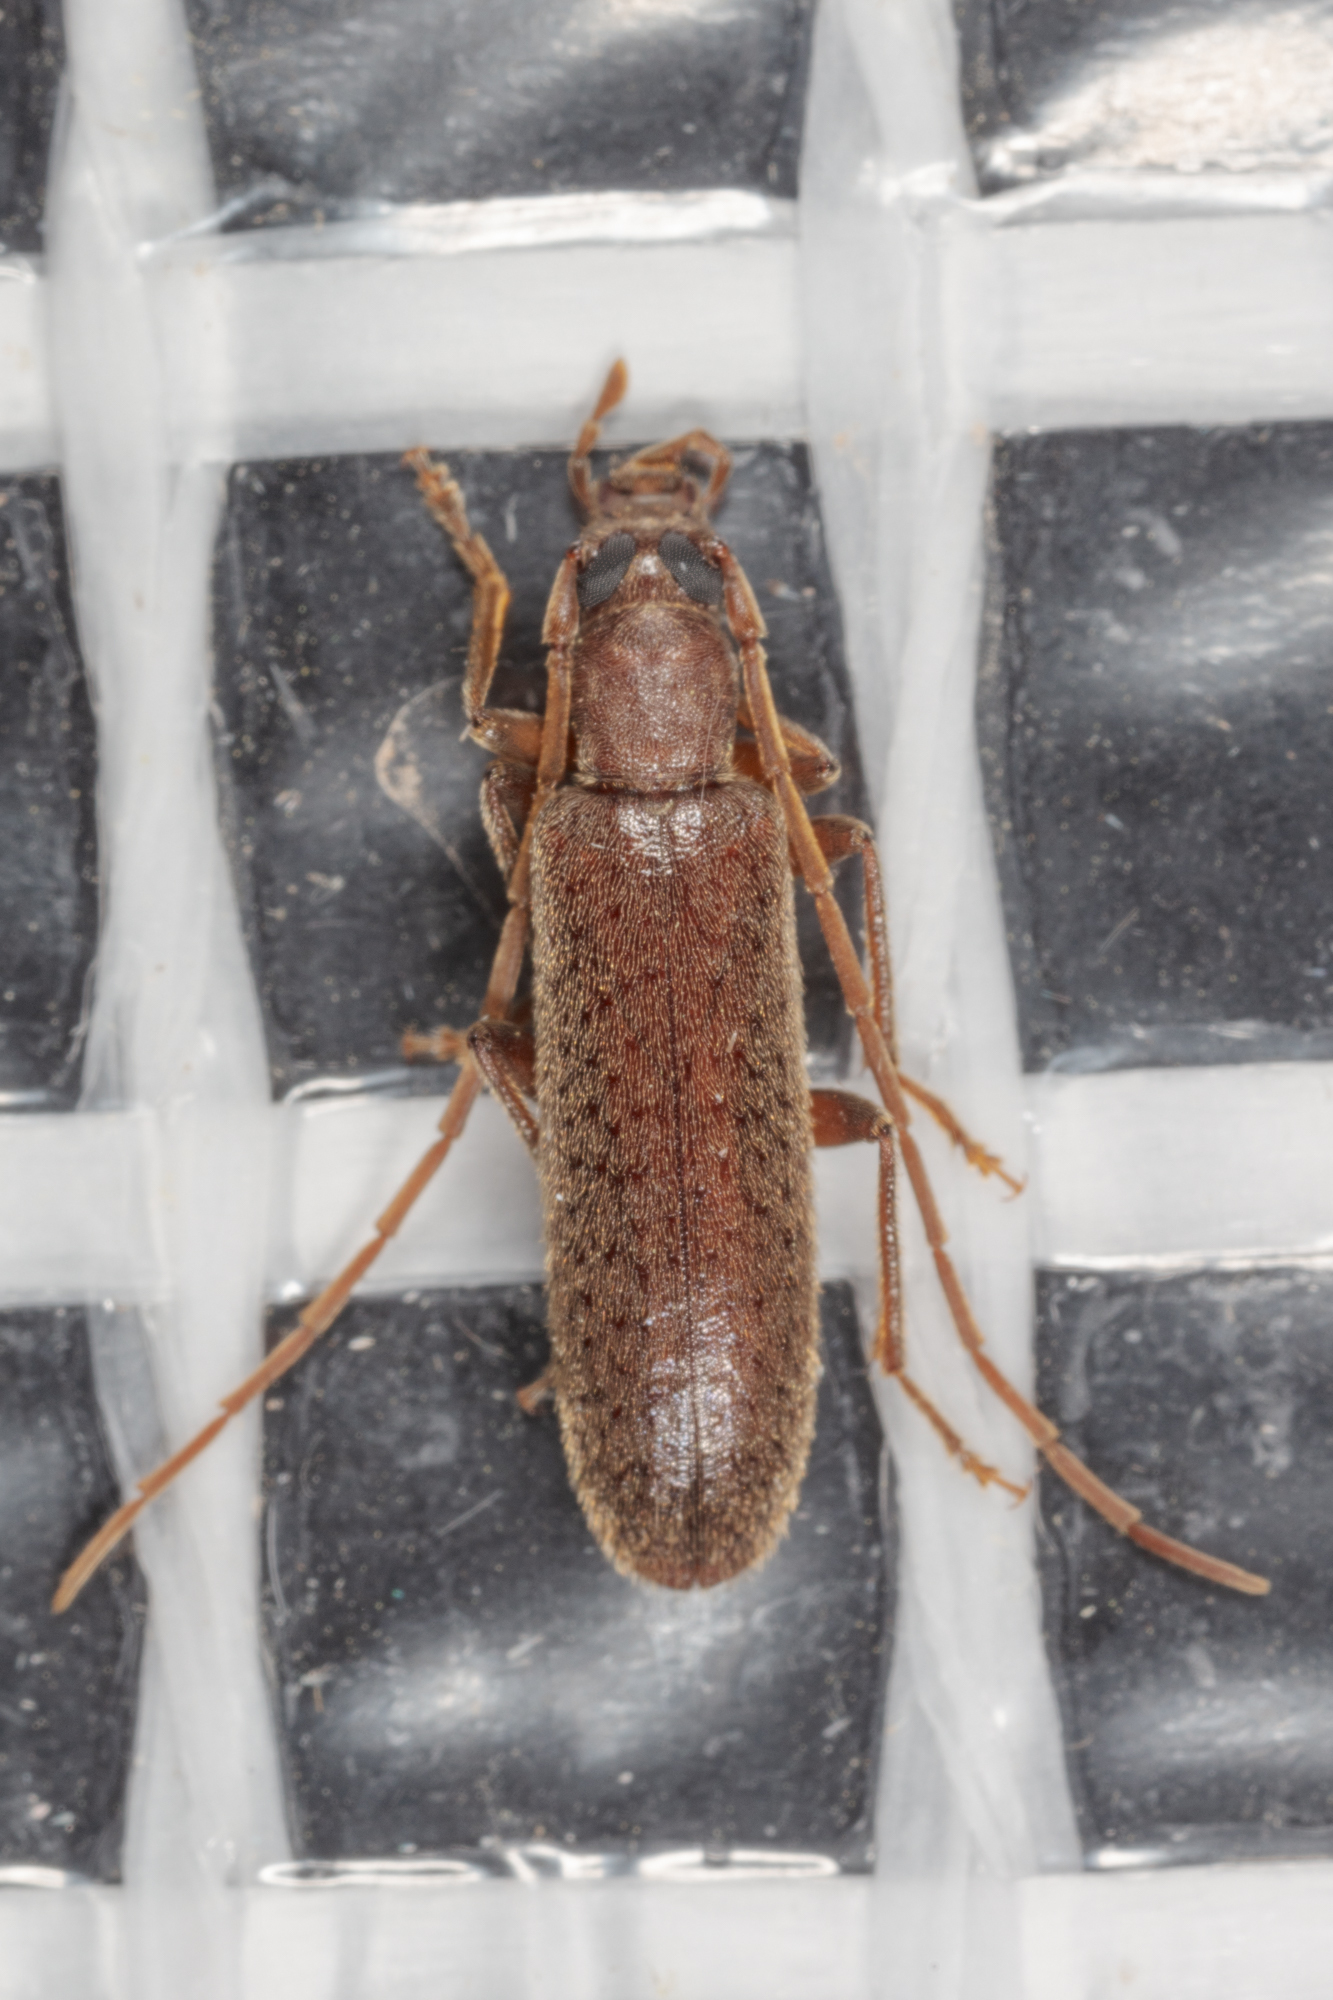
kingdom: Animalia
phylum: Arthropoda
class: Insecta
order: Coleoptera
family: Oedemeridae
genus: Sparedrus
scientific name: Sparedrus aspersus
